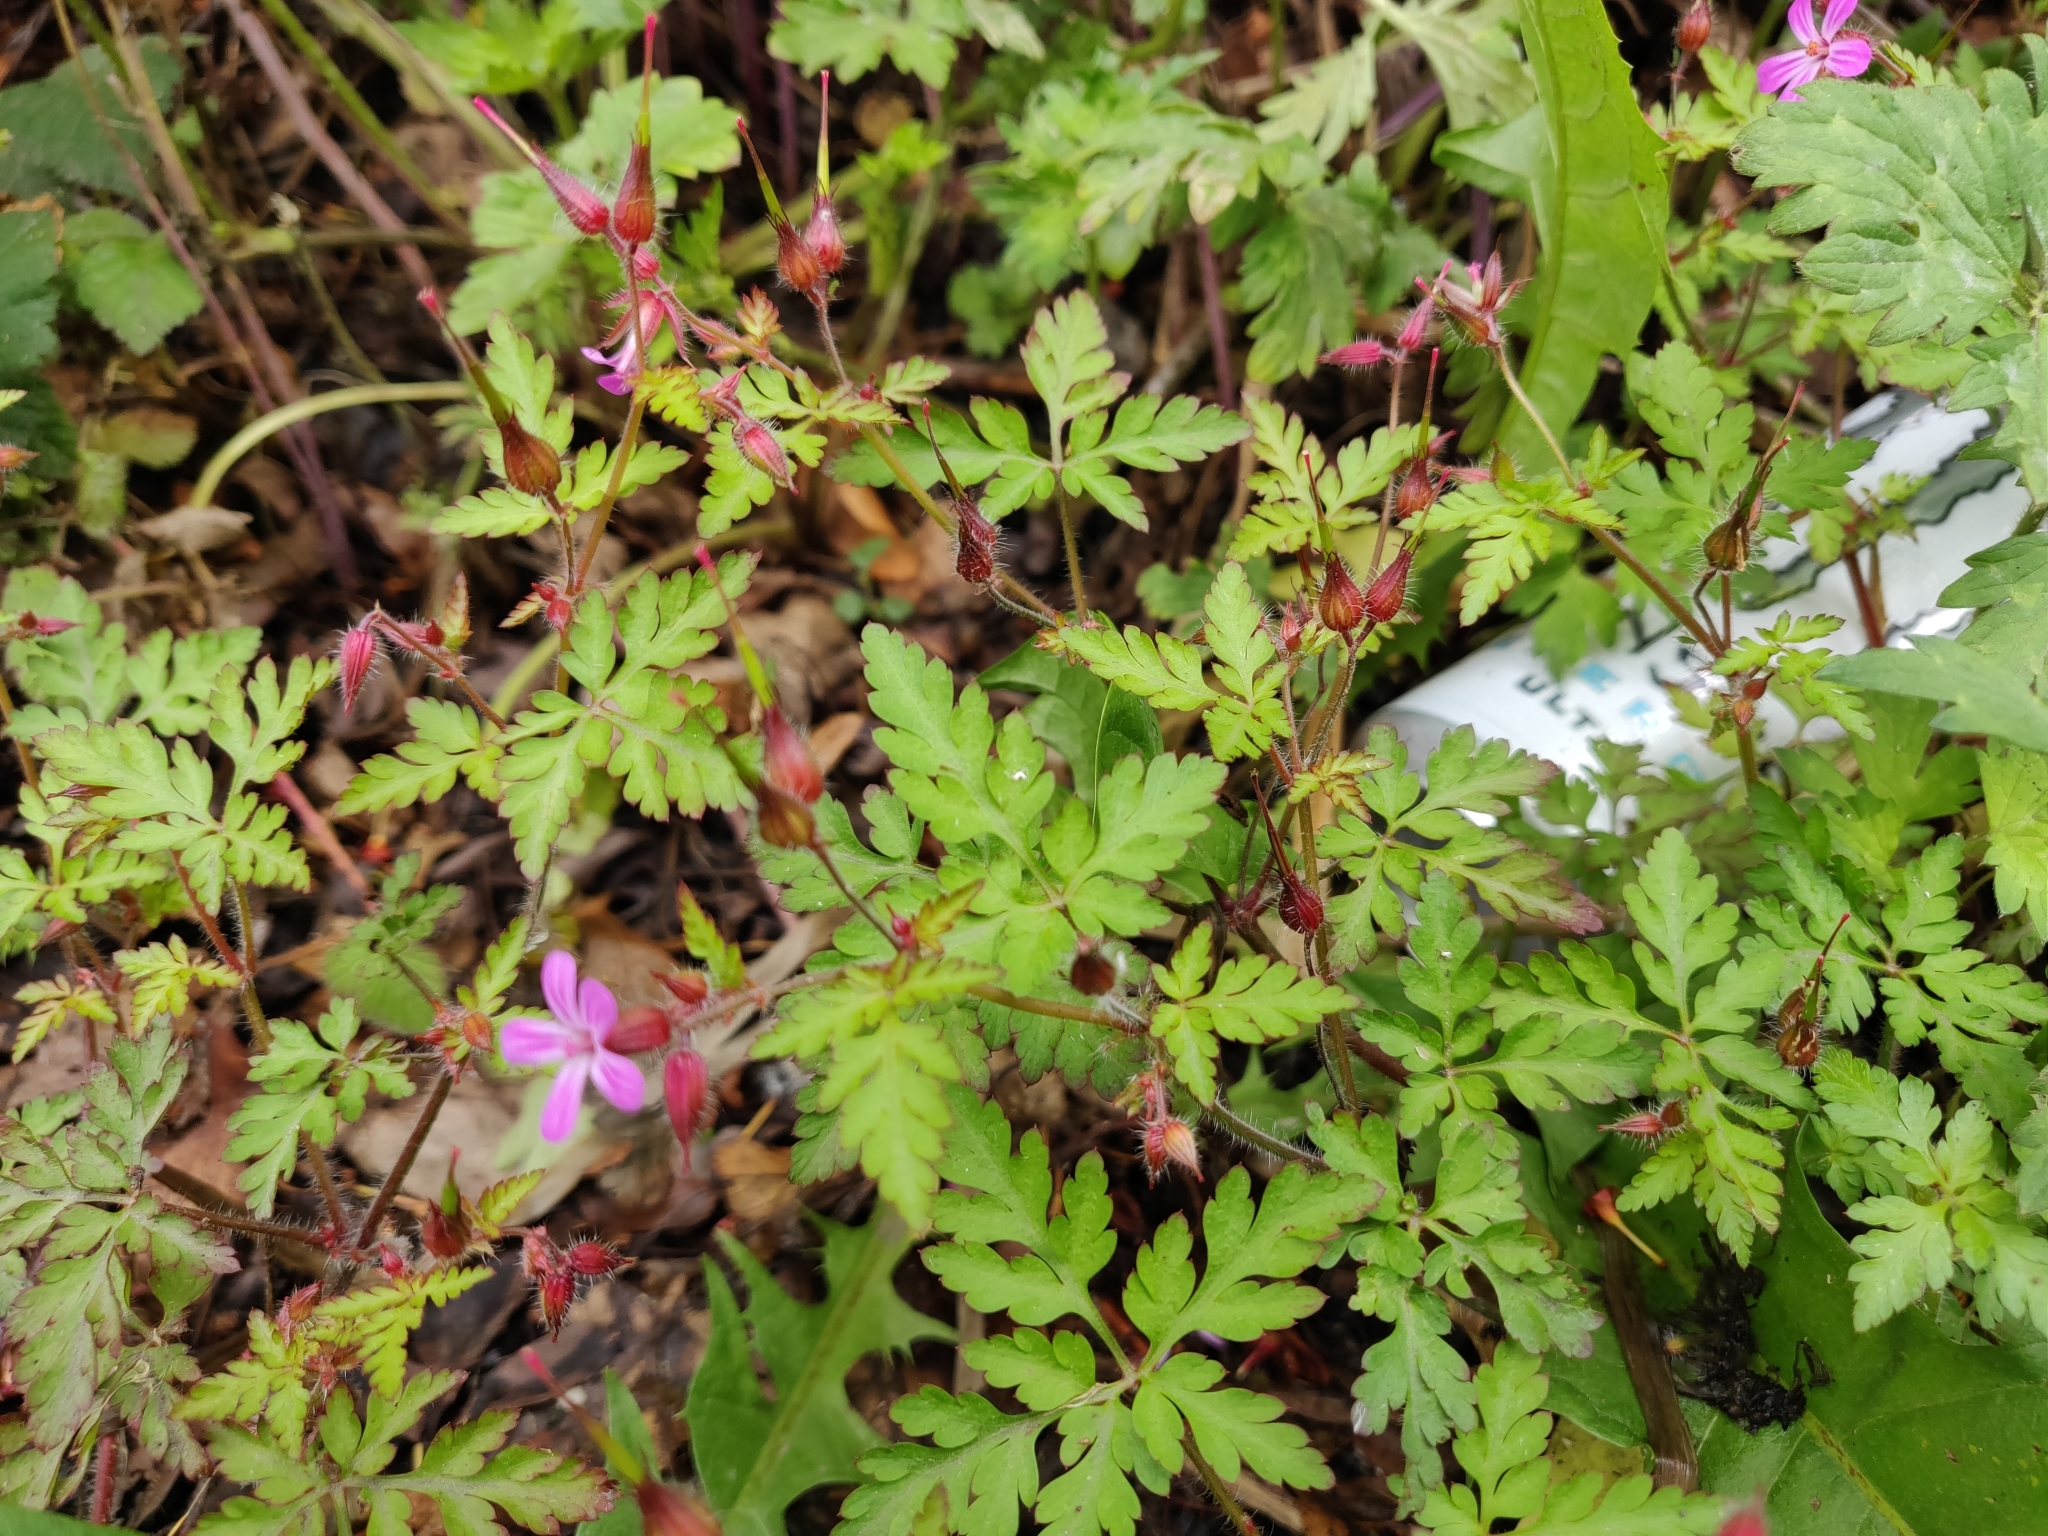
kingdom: Plantae
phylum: Tracheophyta
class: Magnoliopsida
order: Geraniales
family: Geraniaceae
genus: Geranium
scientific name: Geranium robertianum
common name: Herb-robert
